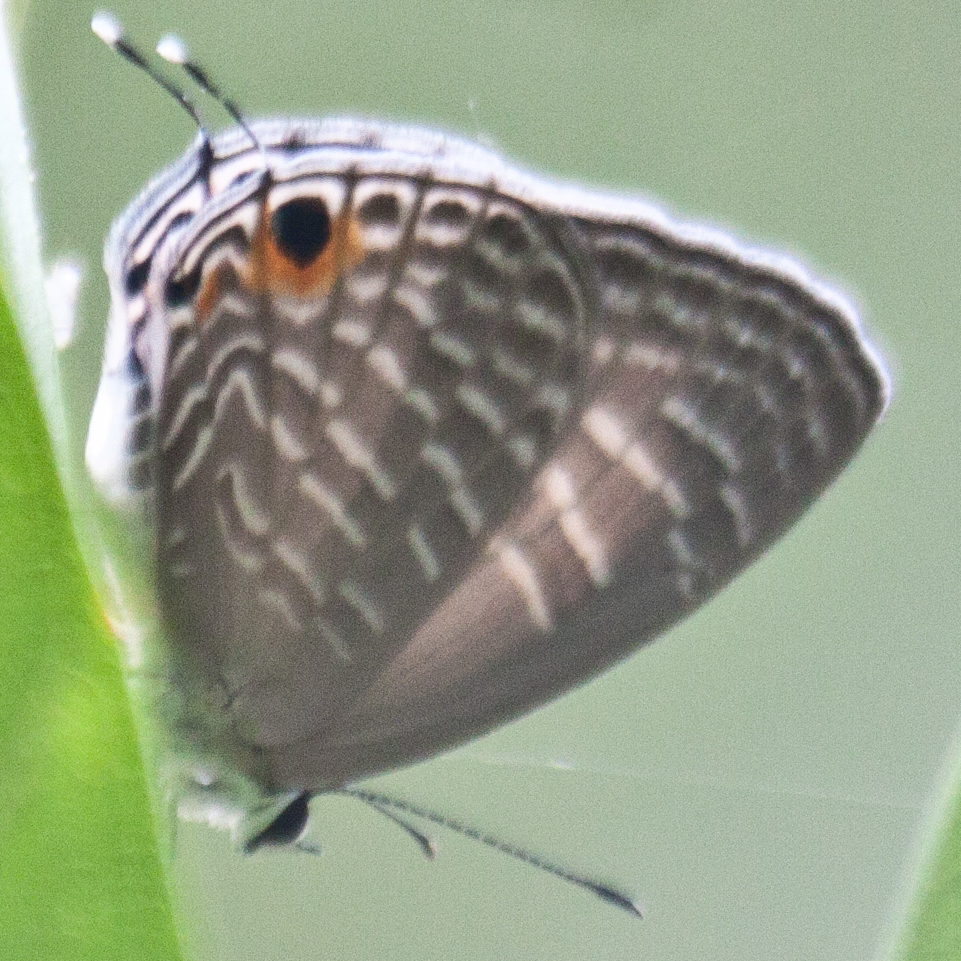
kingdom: Animalia
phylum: Arthropoda
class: Insecta
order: Lepidoptera
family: Lycaenidae
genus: Jamides
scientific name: Jamides alecto
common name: Metallic cerulean
